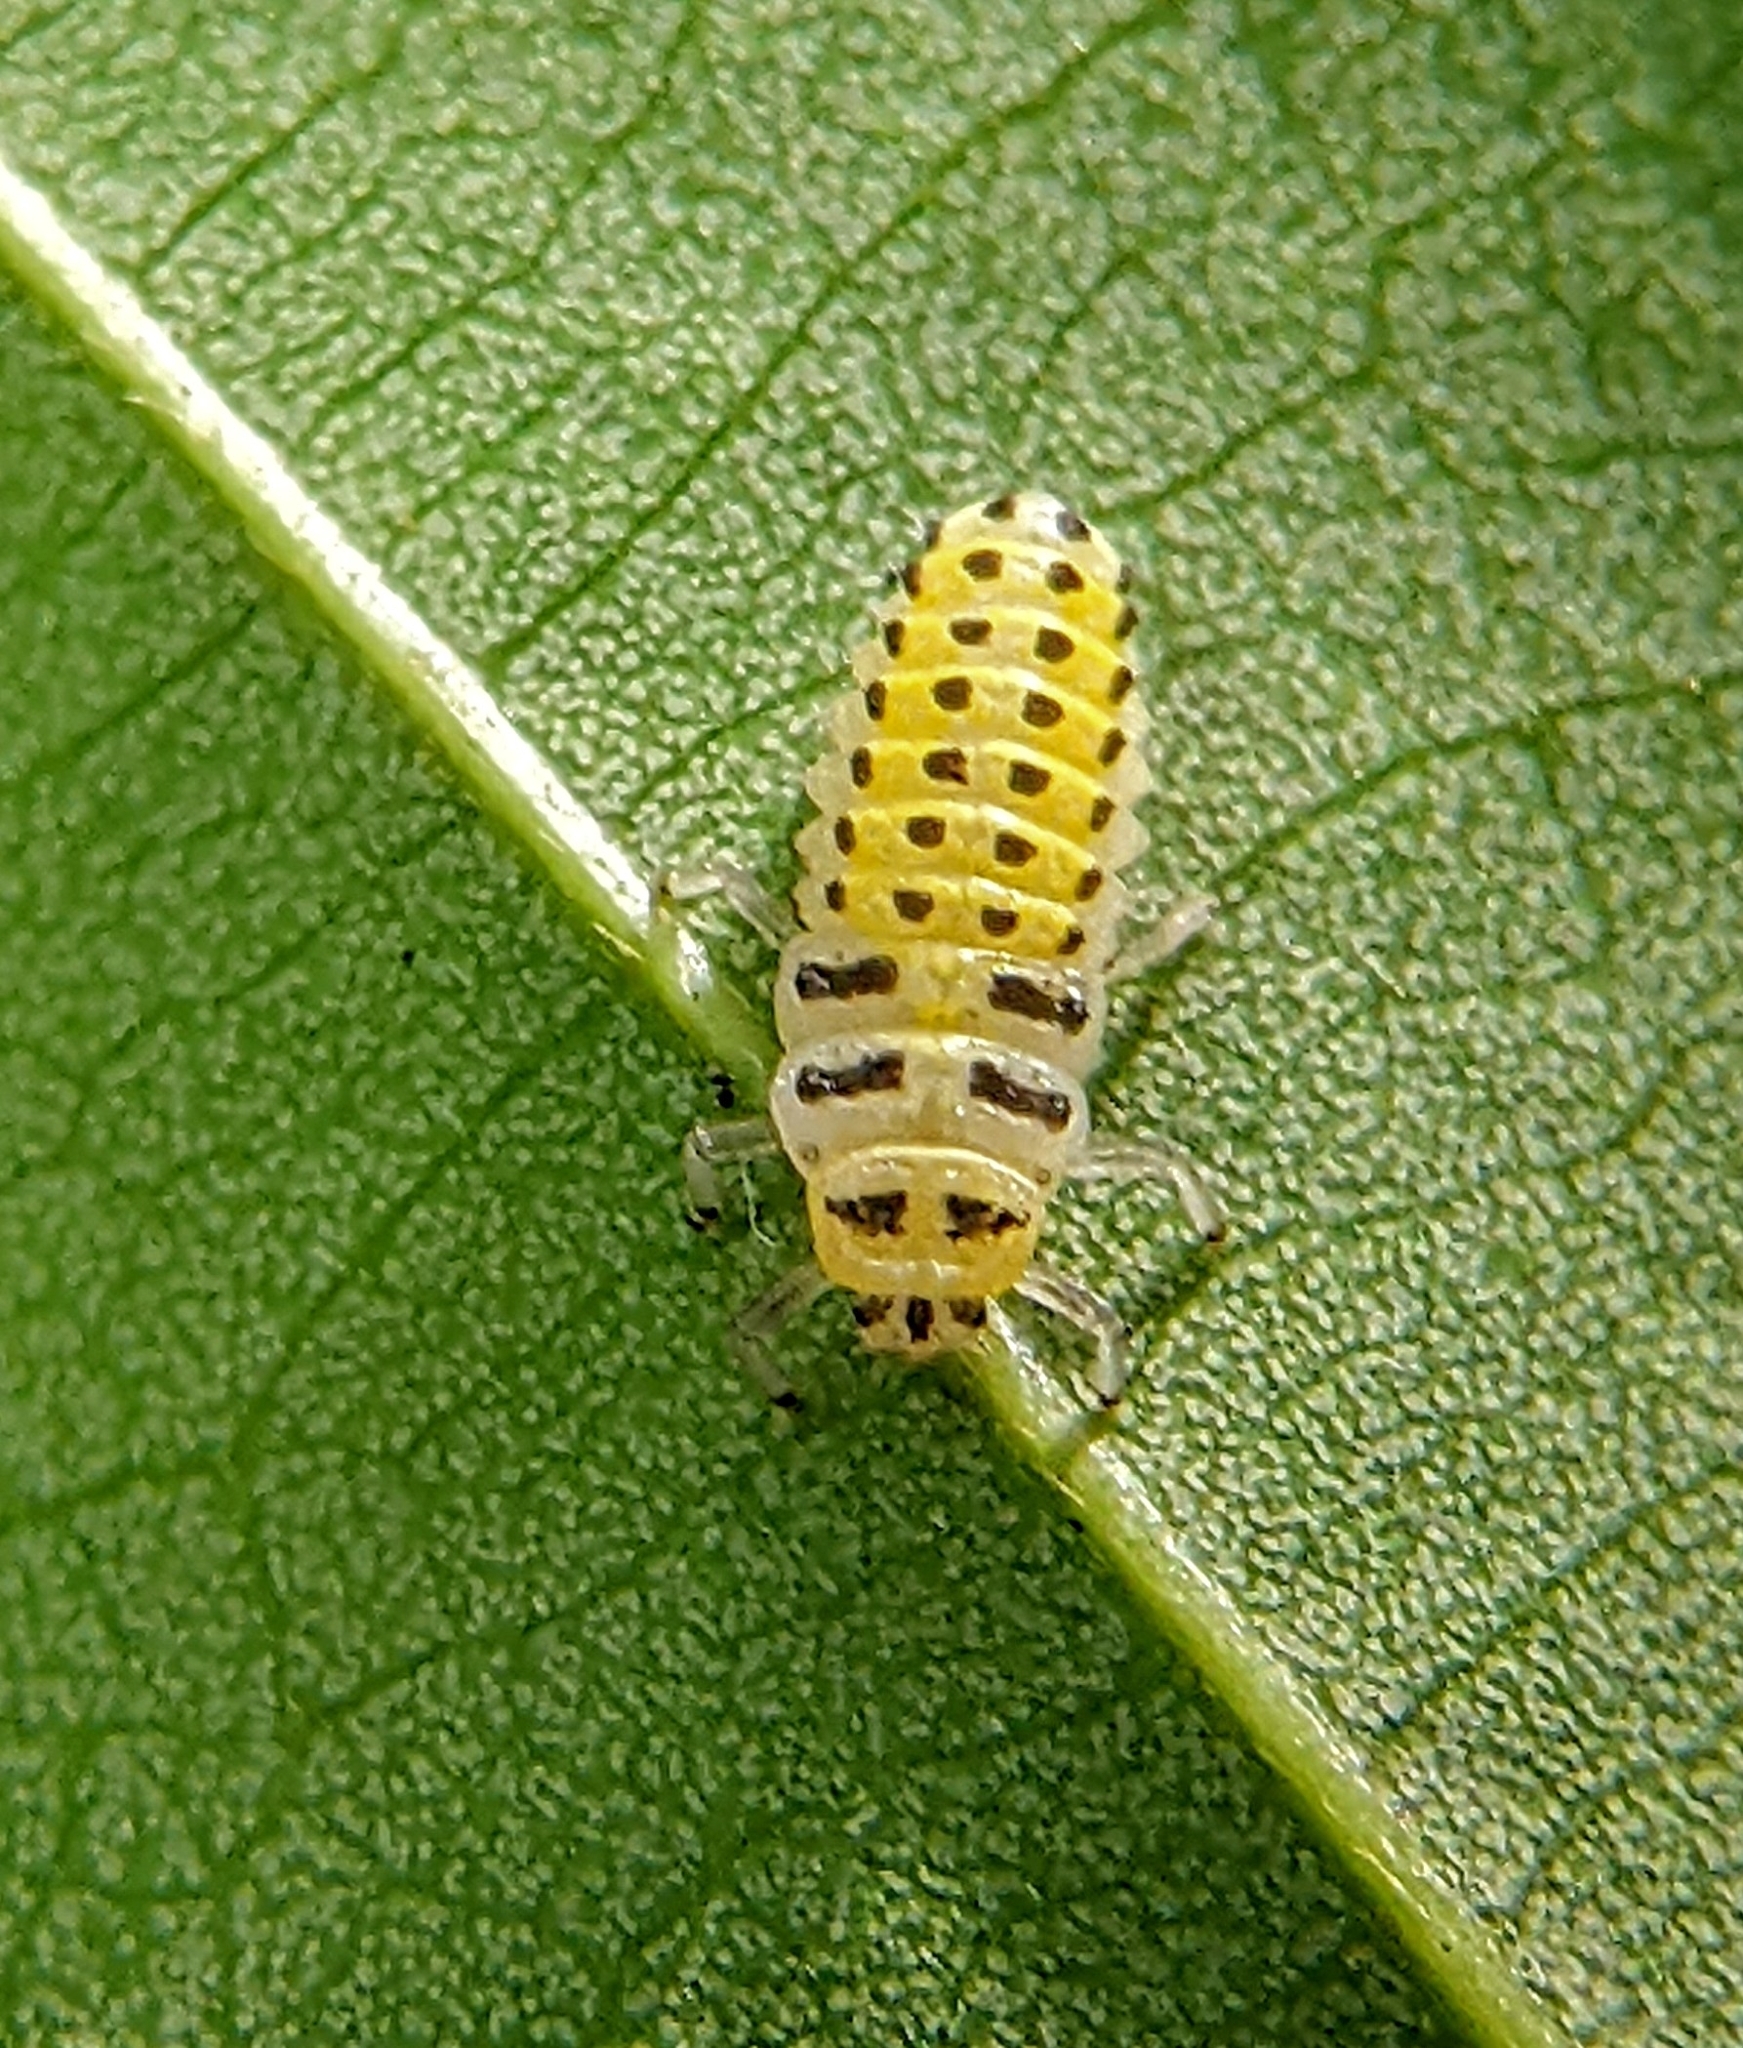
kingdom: Animalia
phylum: Arthropoda
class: Insecta
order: Coleoptera
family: Coccinellidae
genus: Illeis
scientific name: Illeis koebelei
